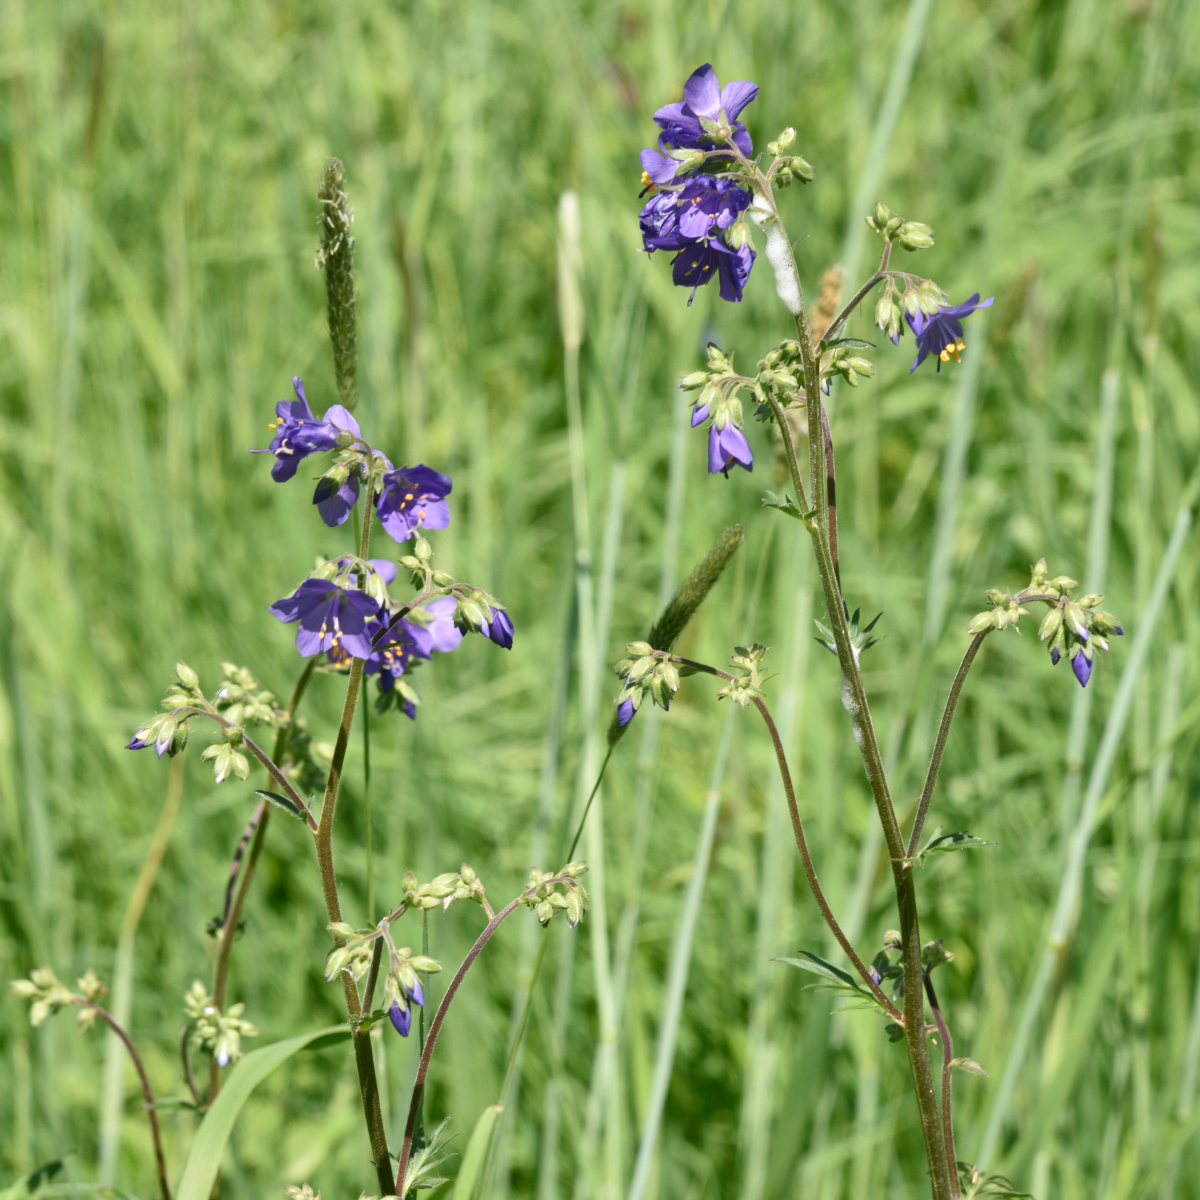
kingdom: Plantae
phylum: Tracheophyta
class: Magnoliopsida
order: Ericales
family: Polemoniaceae
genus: Polemonium
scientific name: Polemonium caeruleum
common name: Jacob's-ladder
